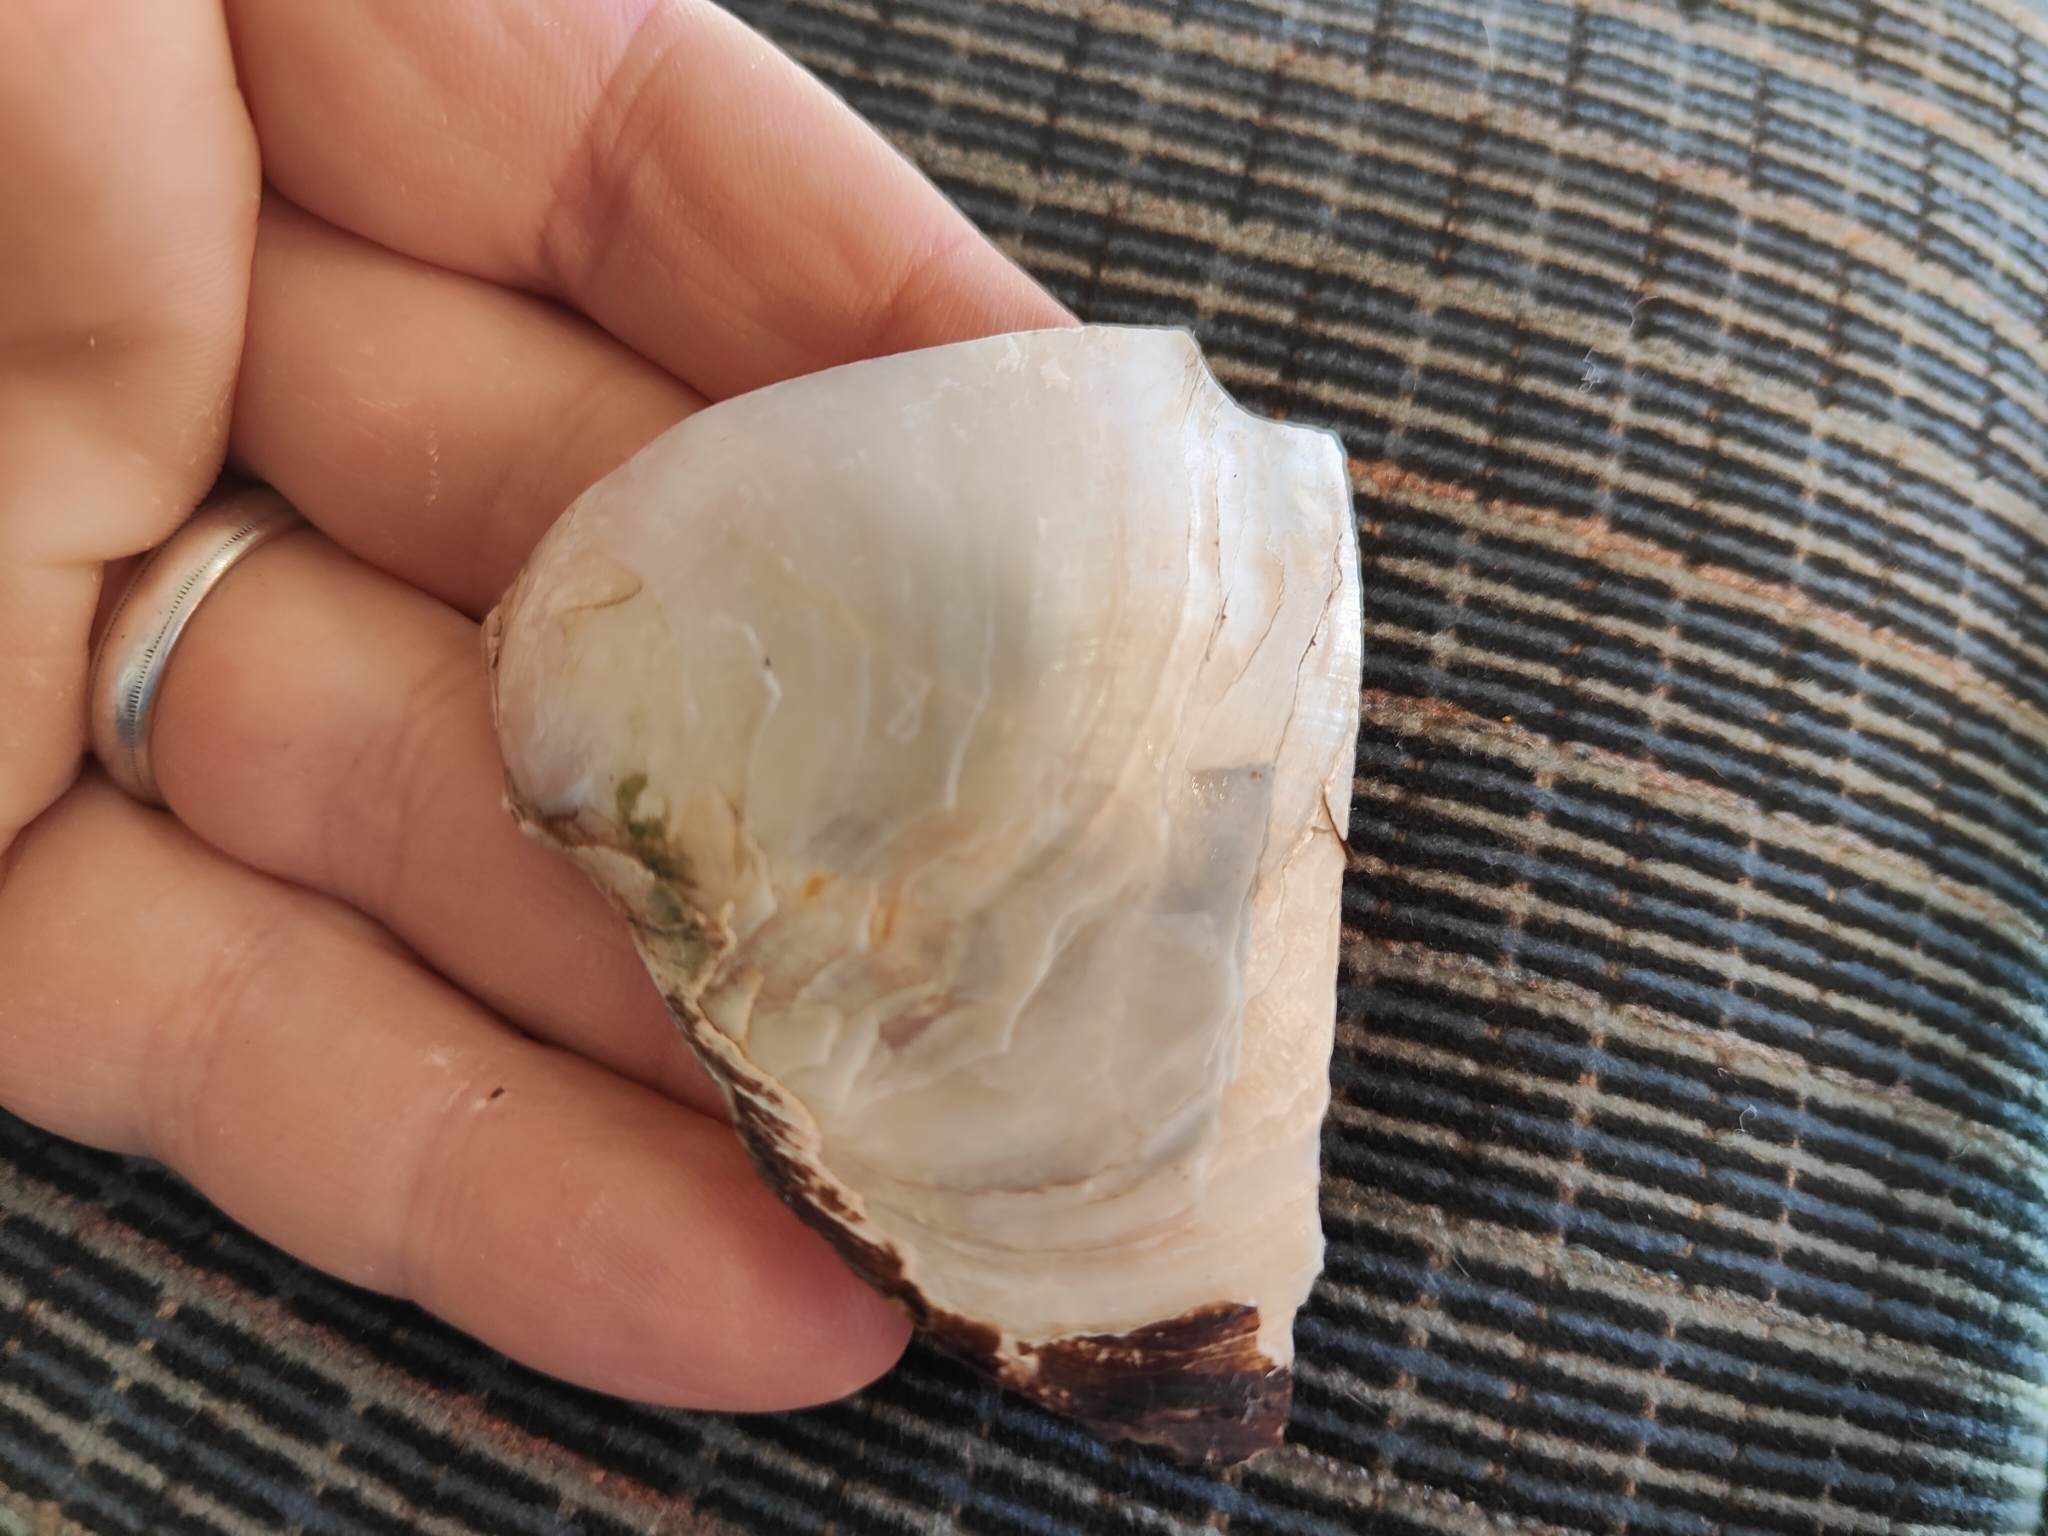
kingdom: Animalia
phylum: Mollusca
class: Bivalvia
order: Unionida
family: Unionidae
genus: Lasmigona
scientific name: Lasmigona complanata
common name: White heelsplitter
